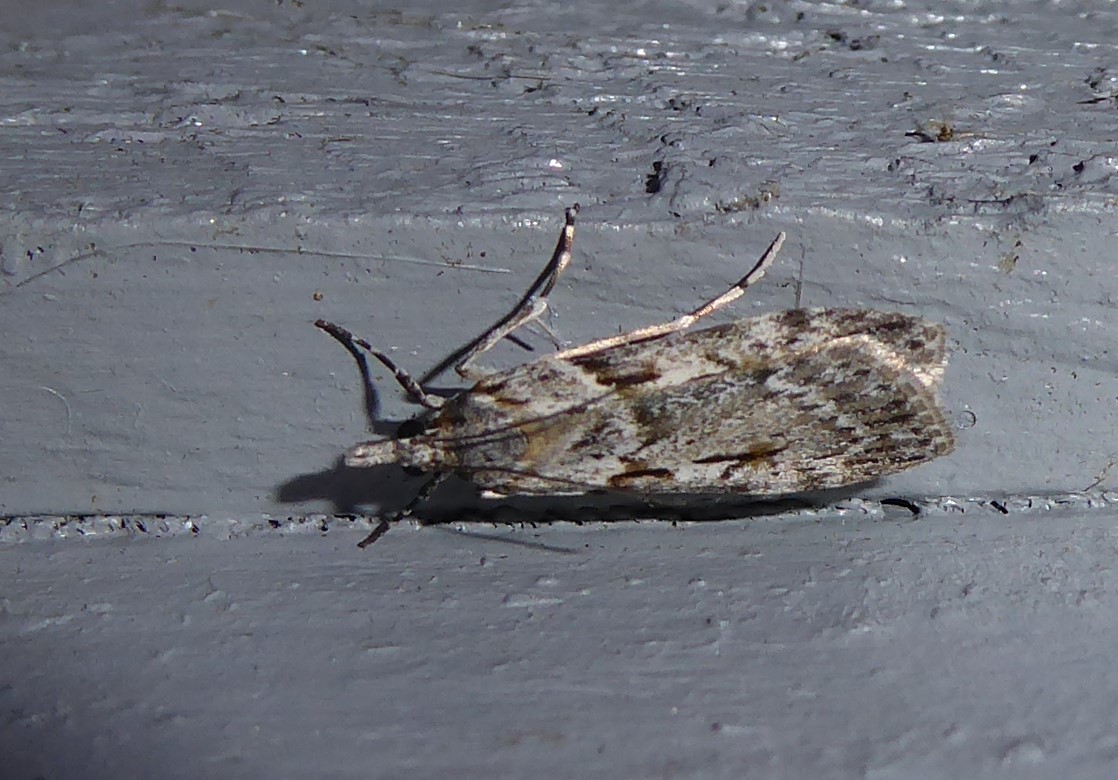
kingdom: Animalia
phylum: Arthropoda
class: Insecta
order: Lepidoptera
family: Crambidae
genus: Scoparia
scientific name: Scoparia halopis
